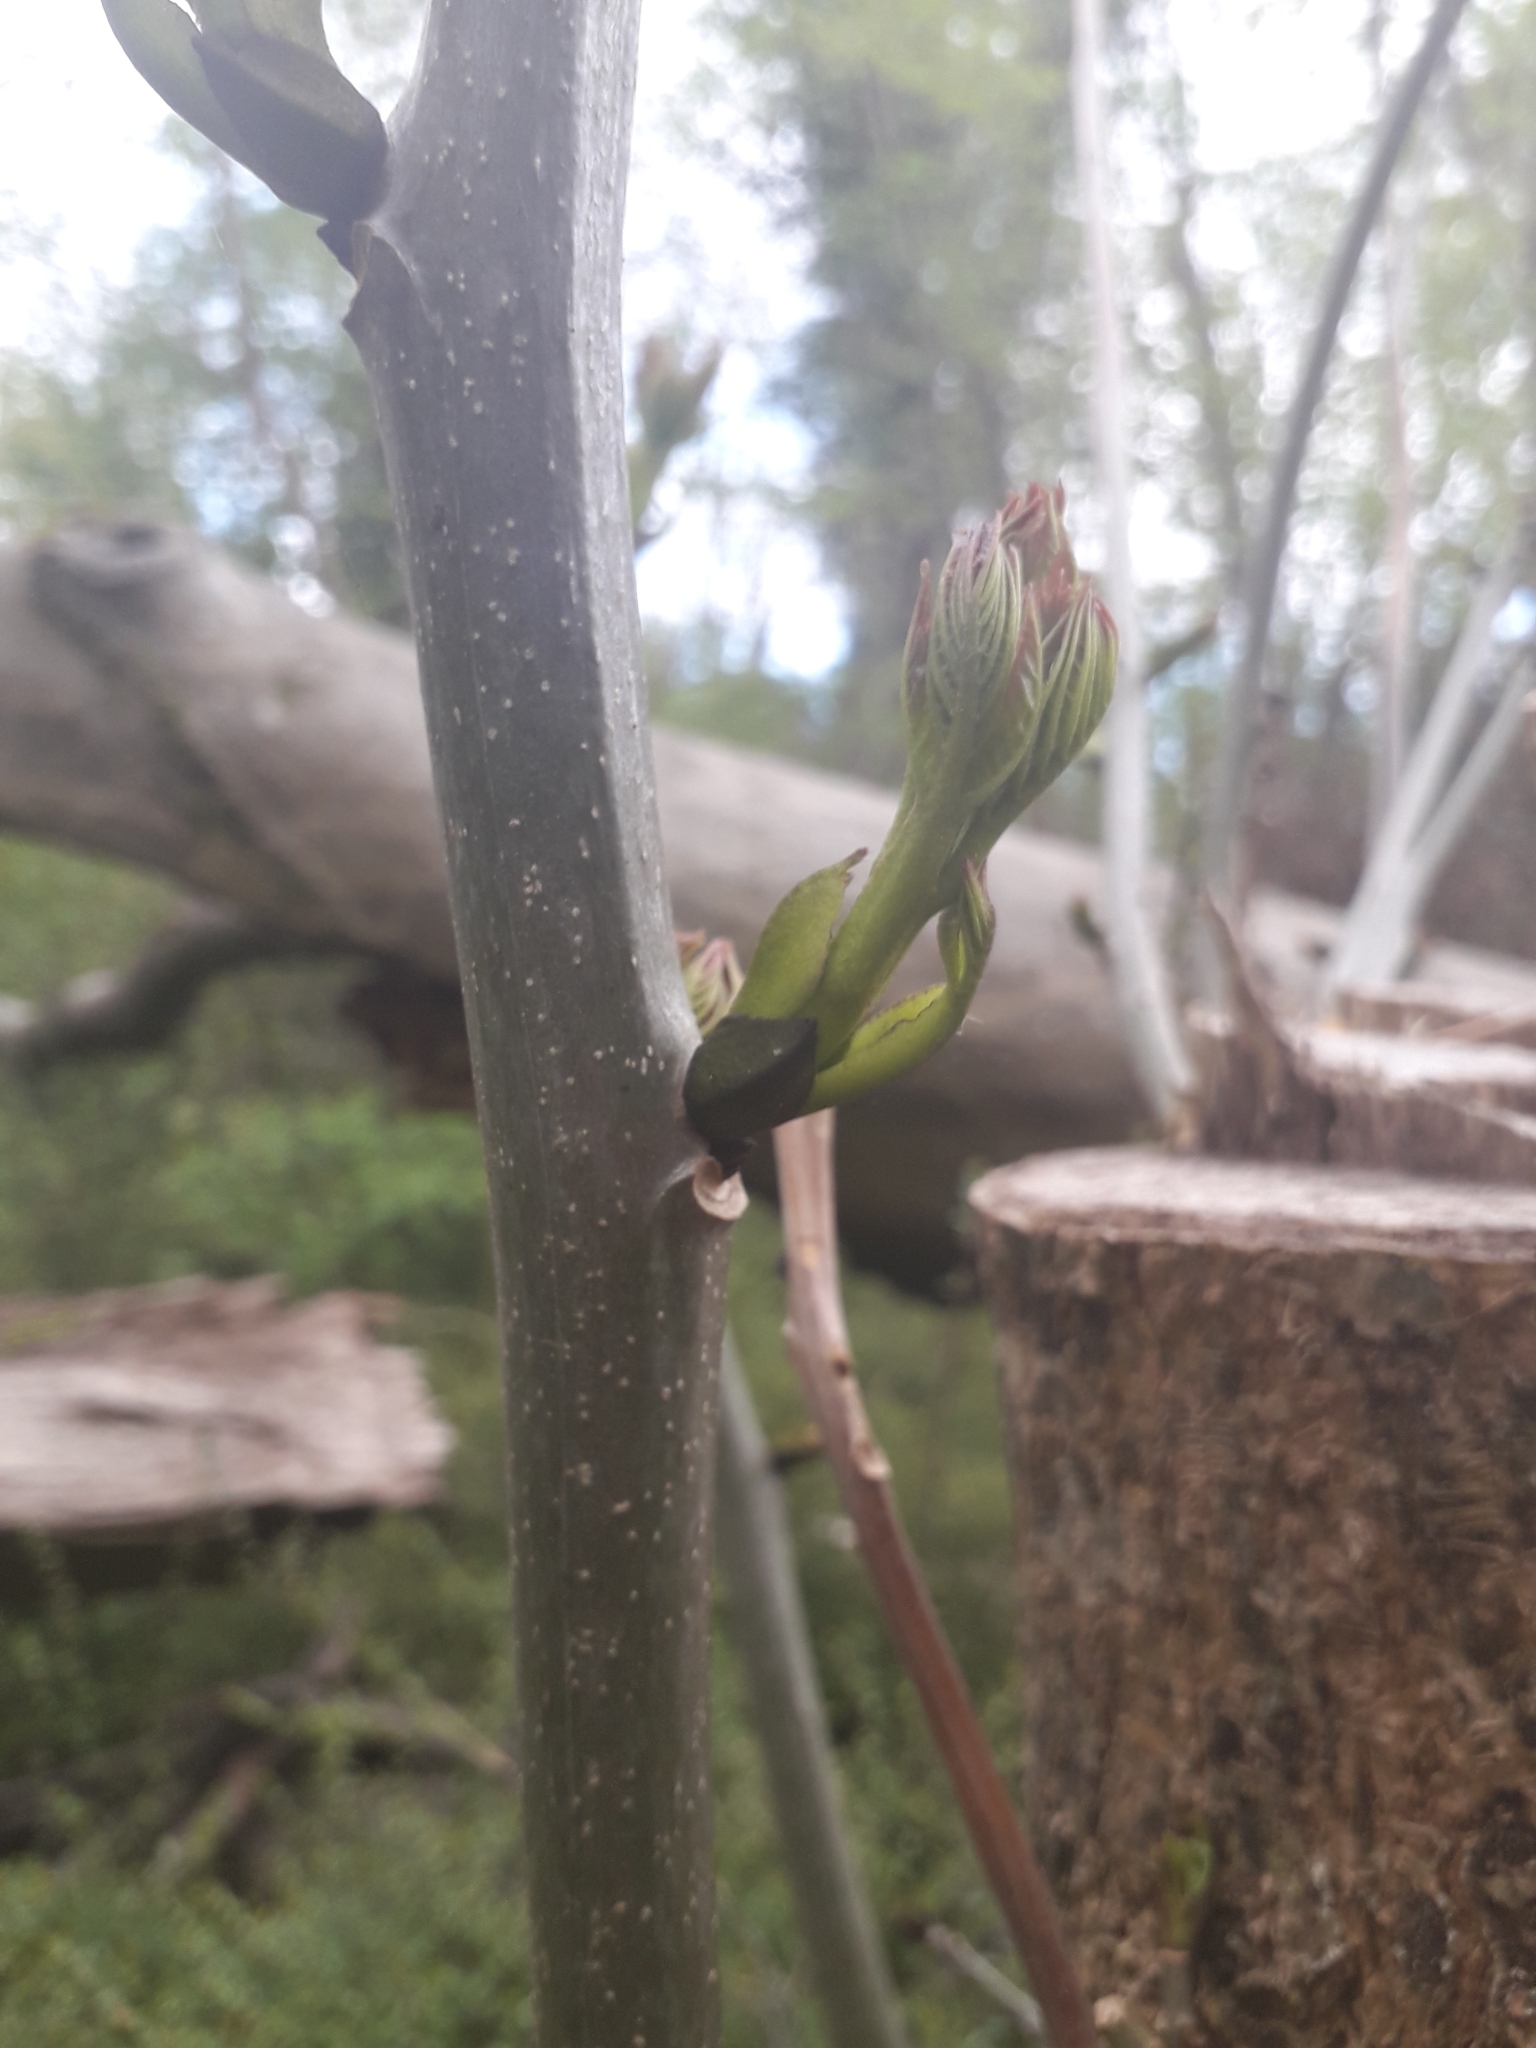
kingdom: Plantae
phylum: Tracheophyta
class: Magnoliopsida
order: Lamiales
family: Oleaceae
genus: Fraxinus
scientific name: Fraxinus excelsior
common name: European ash
